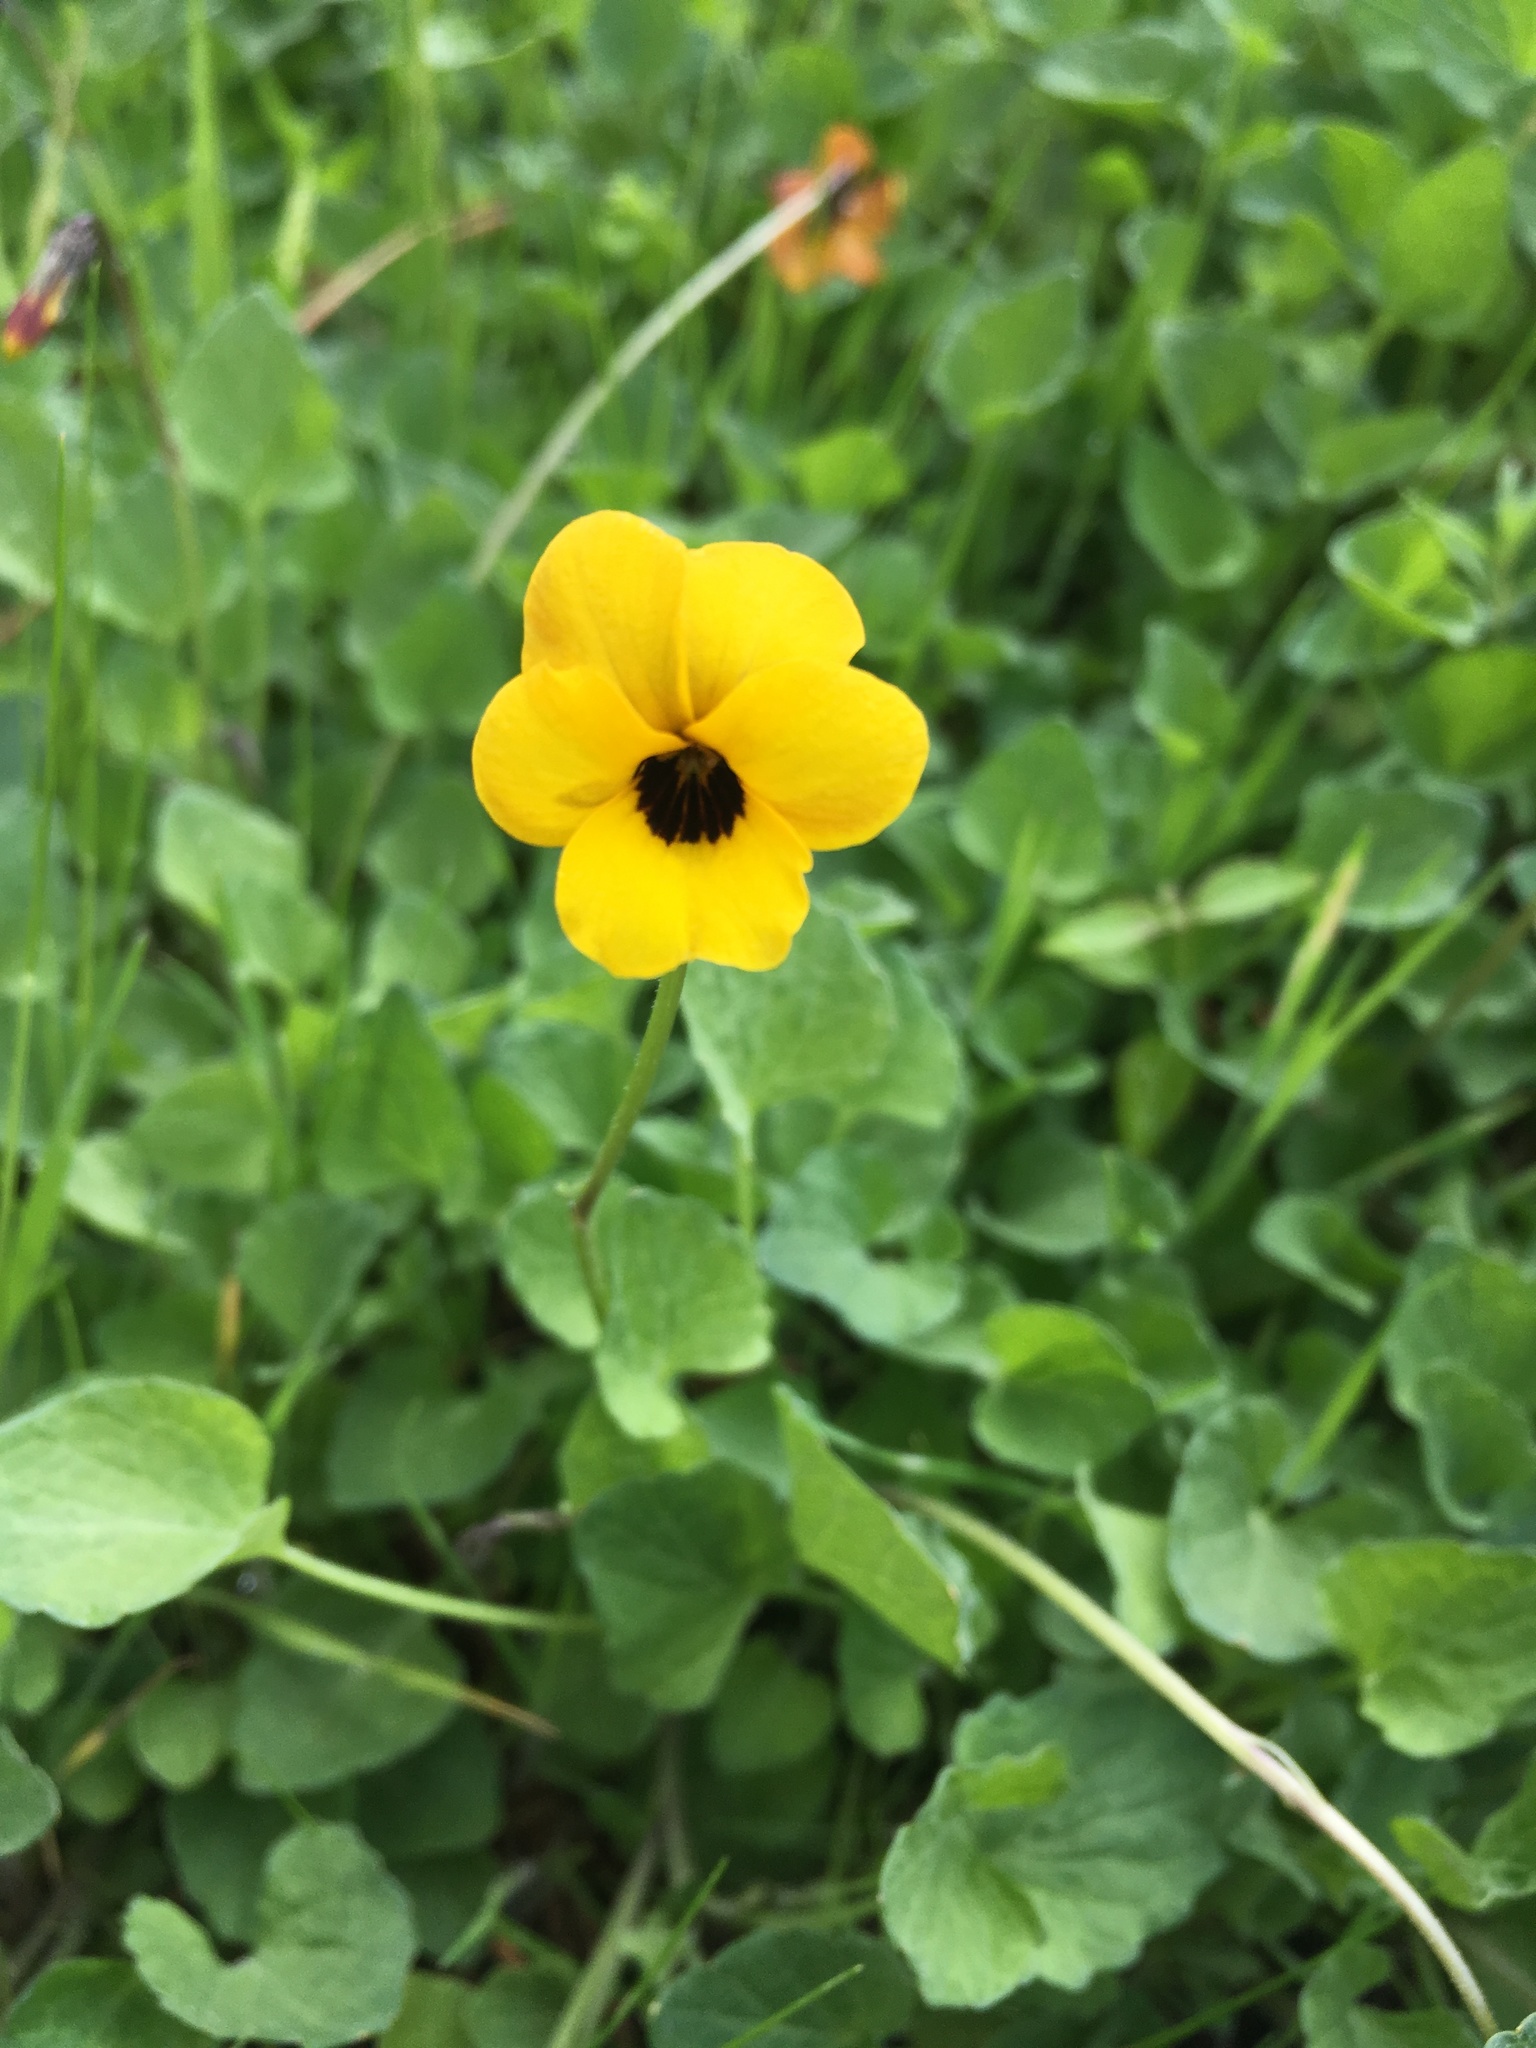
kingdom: Plantae
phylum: Tracheophyta
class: Magnoliopsida
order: Malpighiales
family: Violaceae
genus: Viola
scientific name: Viola pedunculata
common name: California golden violet
